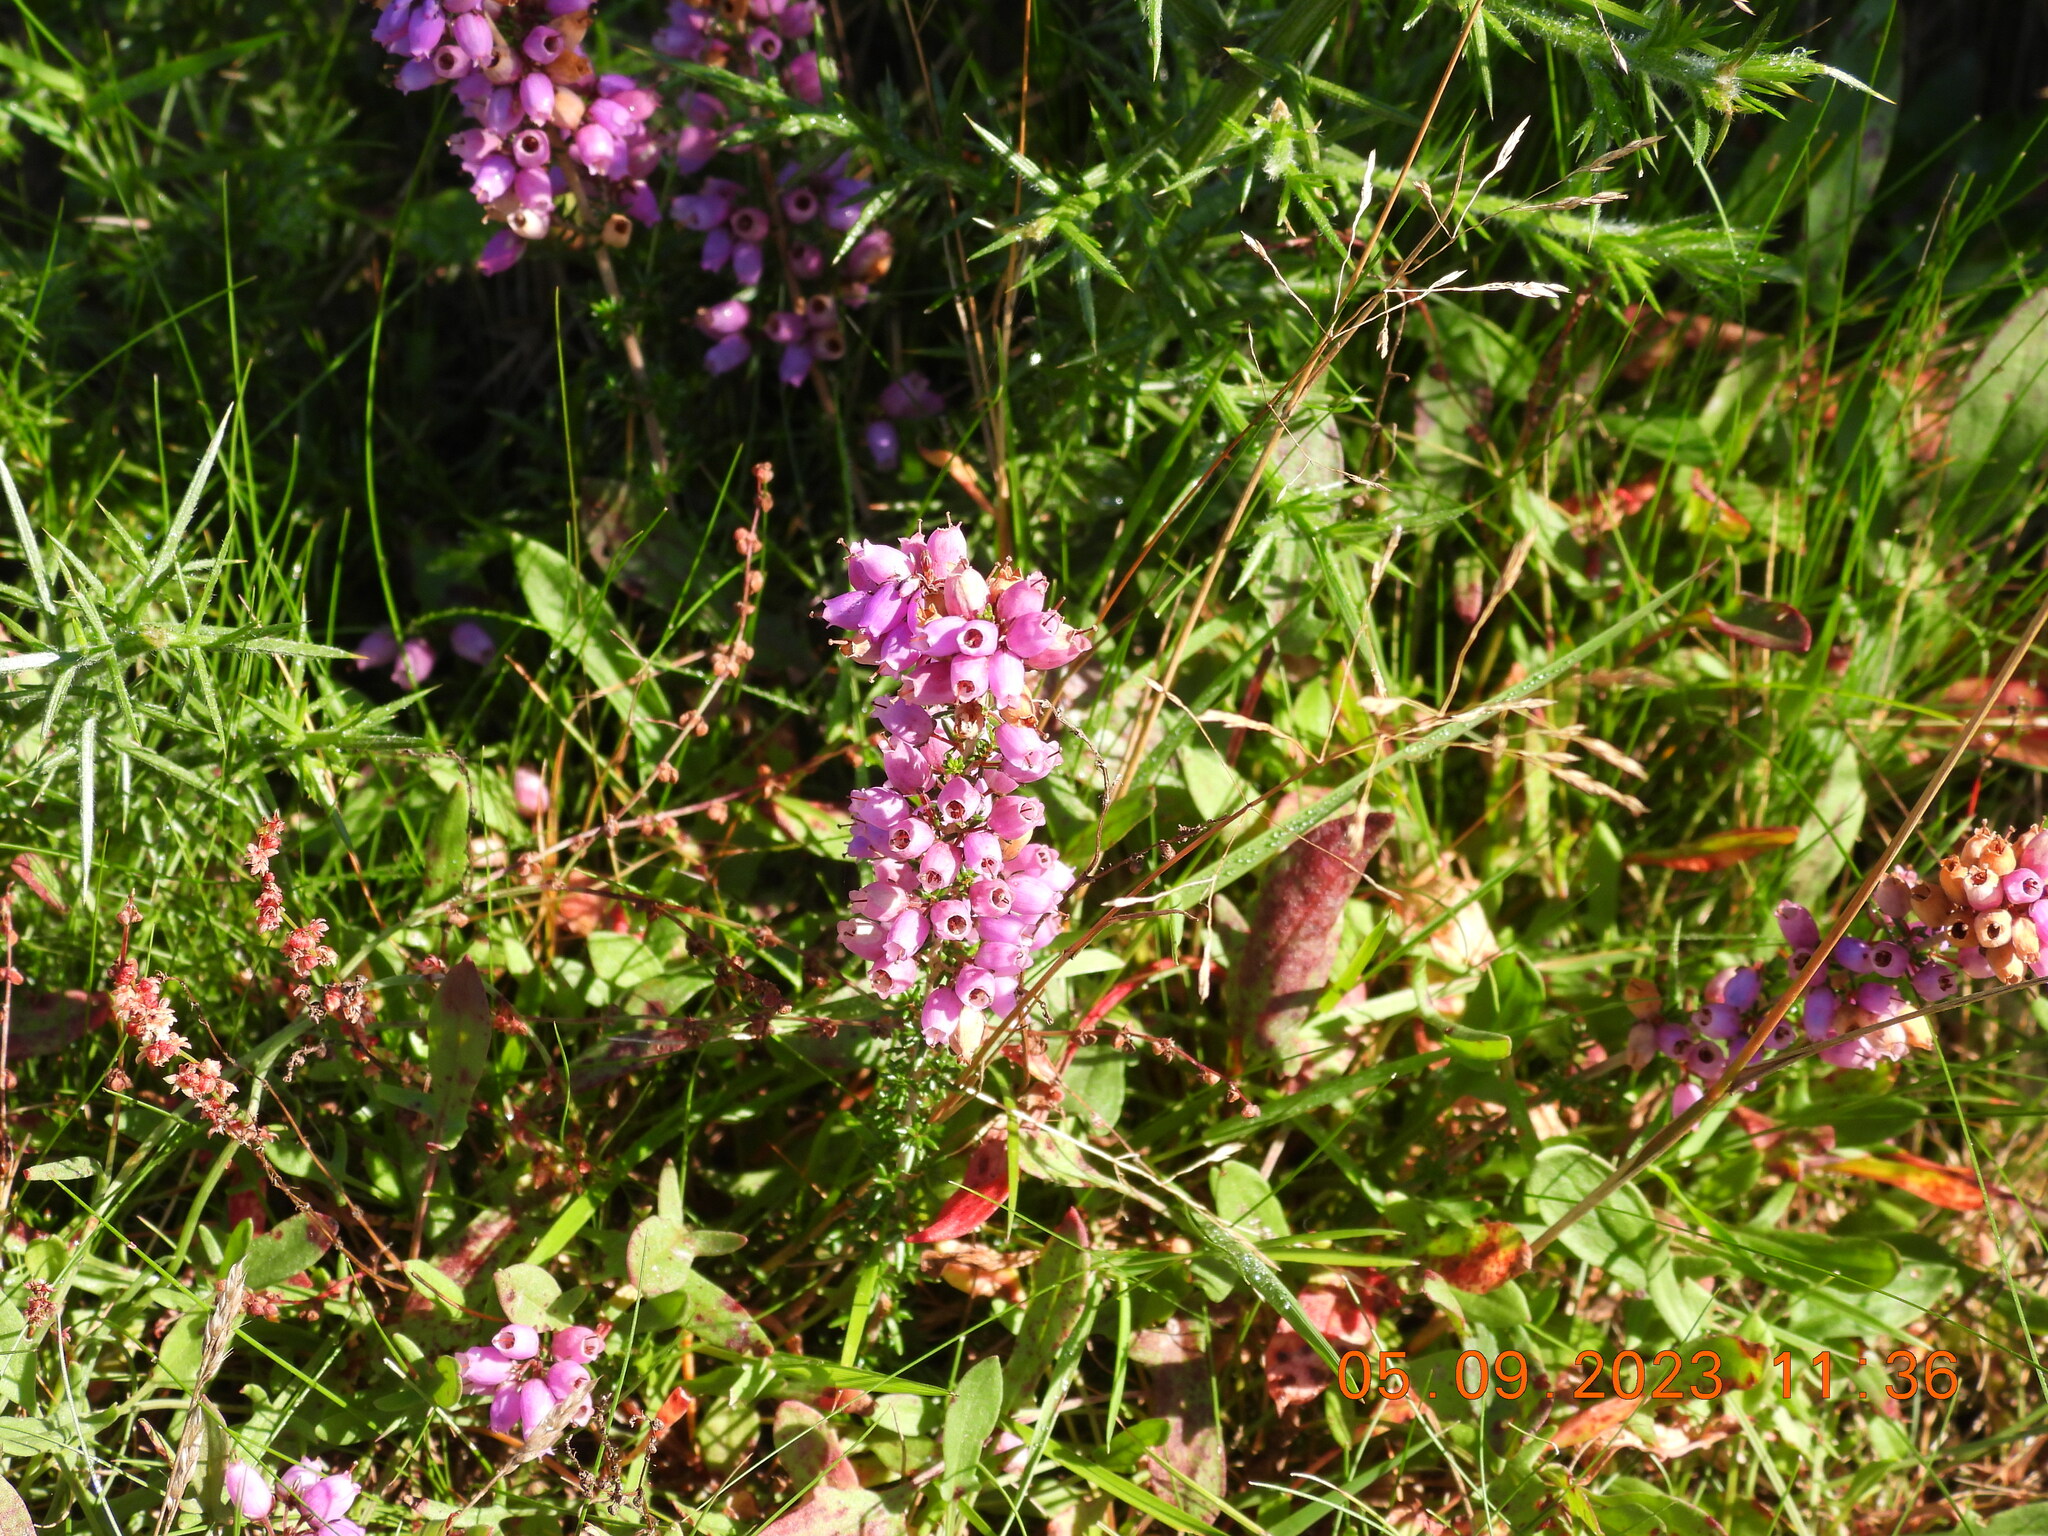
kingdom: Plantae
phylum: Tracheophyta
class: Magnoliopsida
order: Ericales
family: Ericaceae
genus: Erica
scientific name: Erica cinerea
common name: Bell heather
